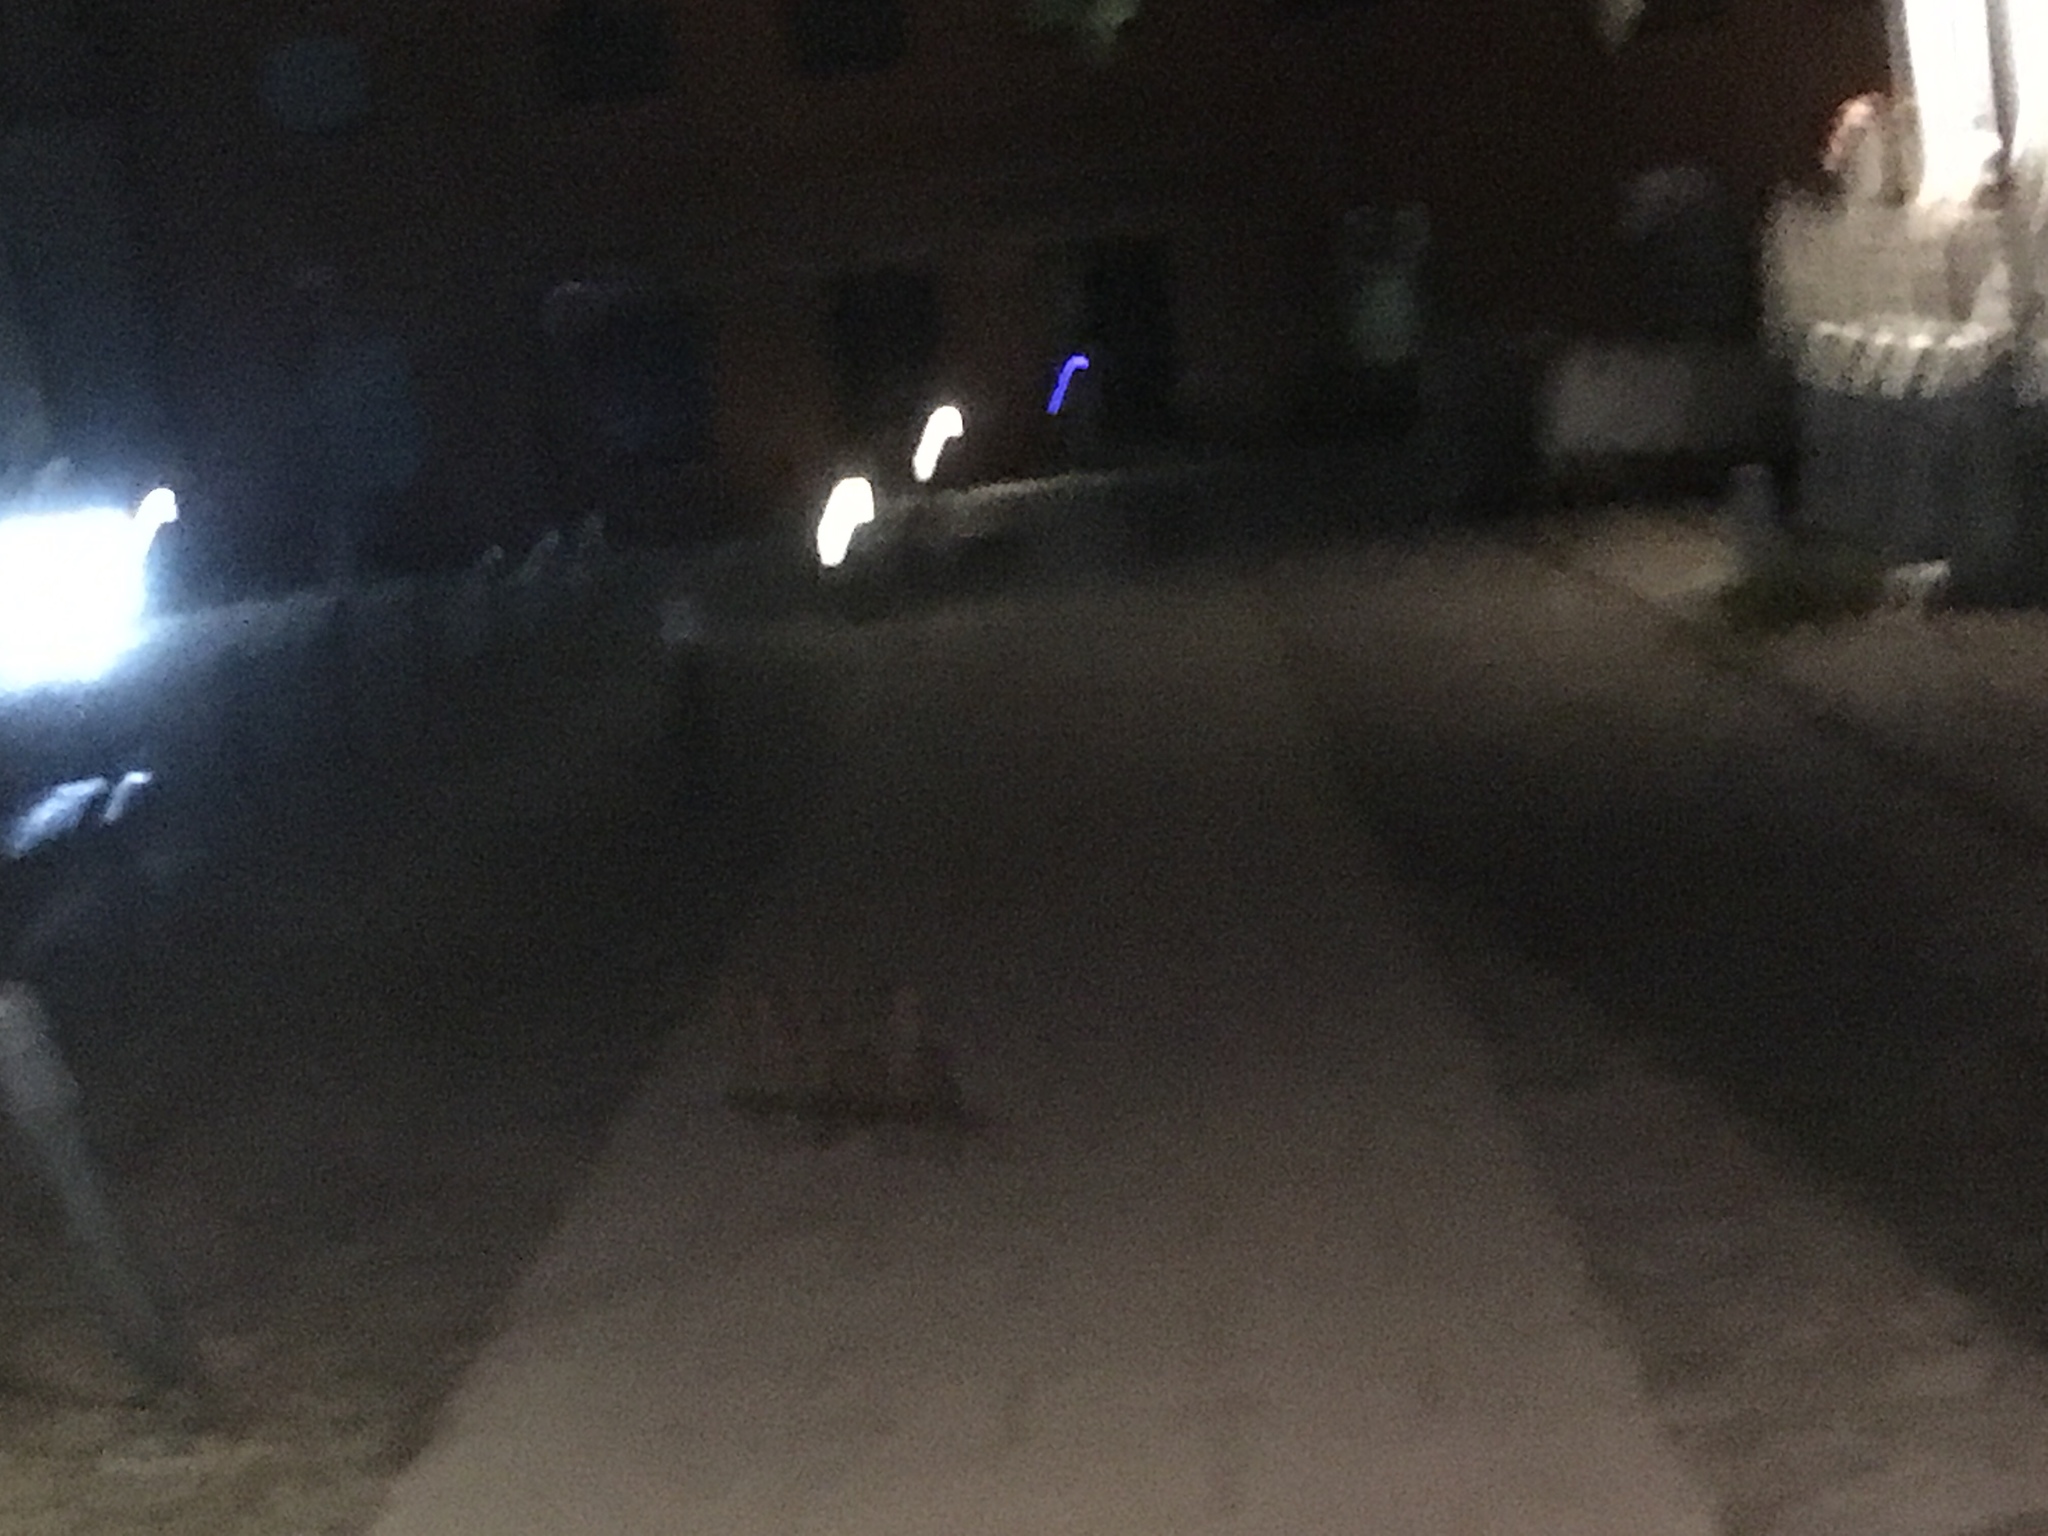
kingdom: Animalia
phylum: Chordata
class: Mammalia
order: Carnivora
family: Canidae
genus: Vulpes
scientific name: Vulpes vulpes
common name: Red fox
